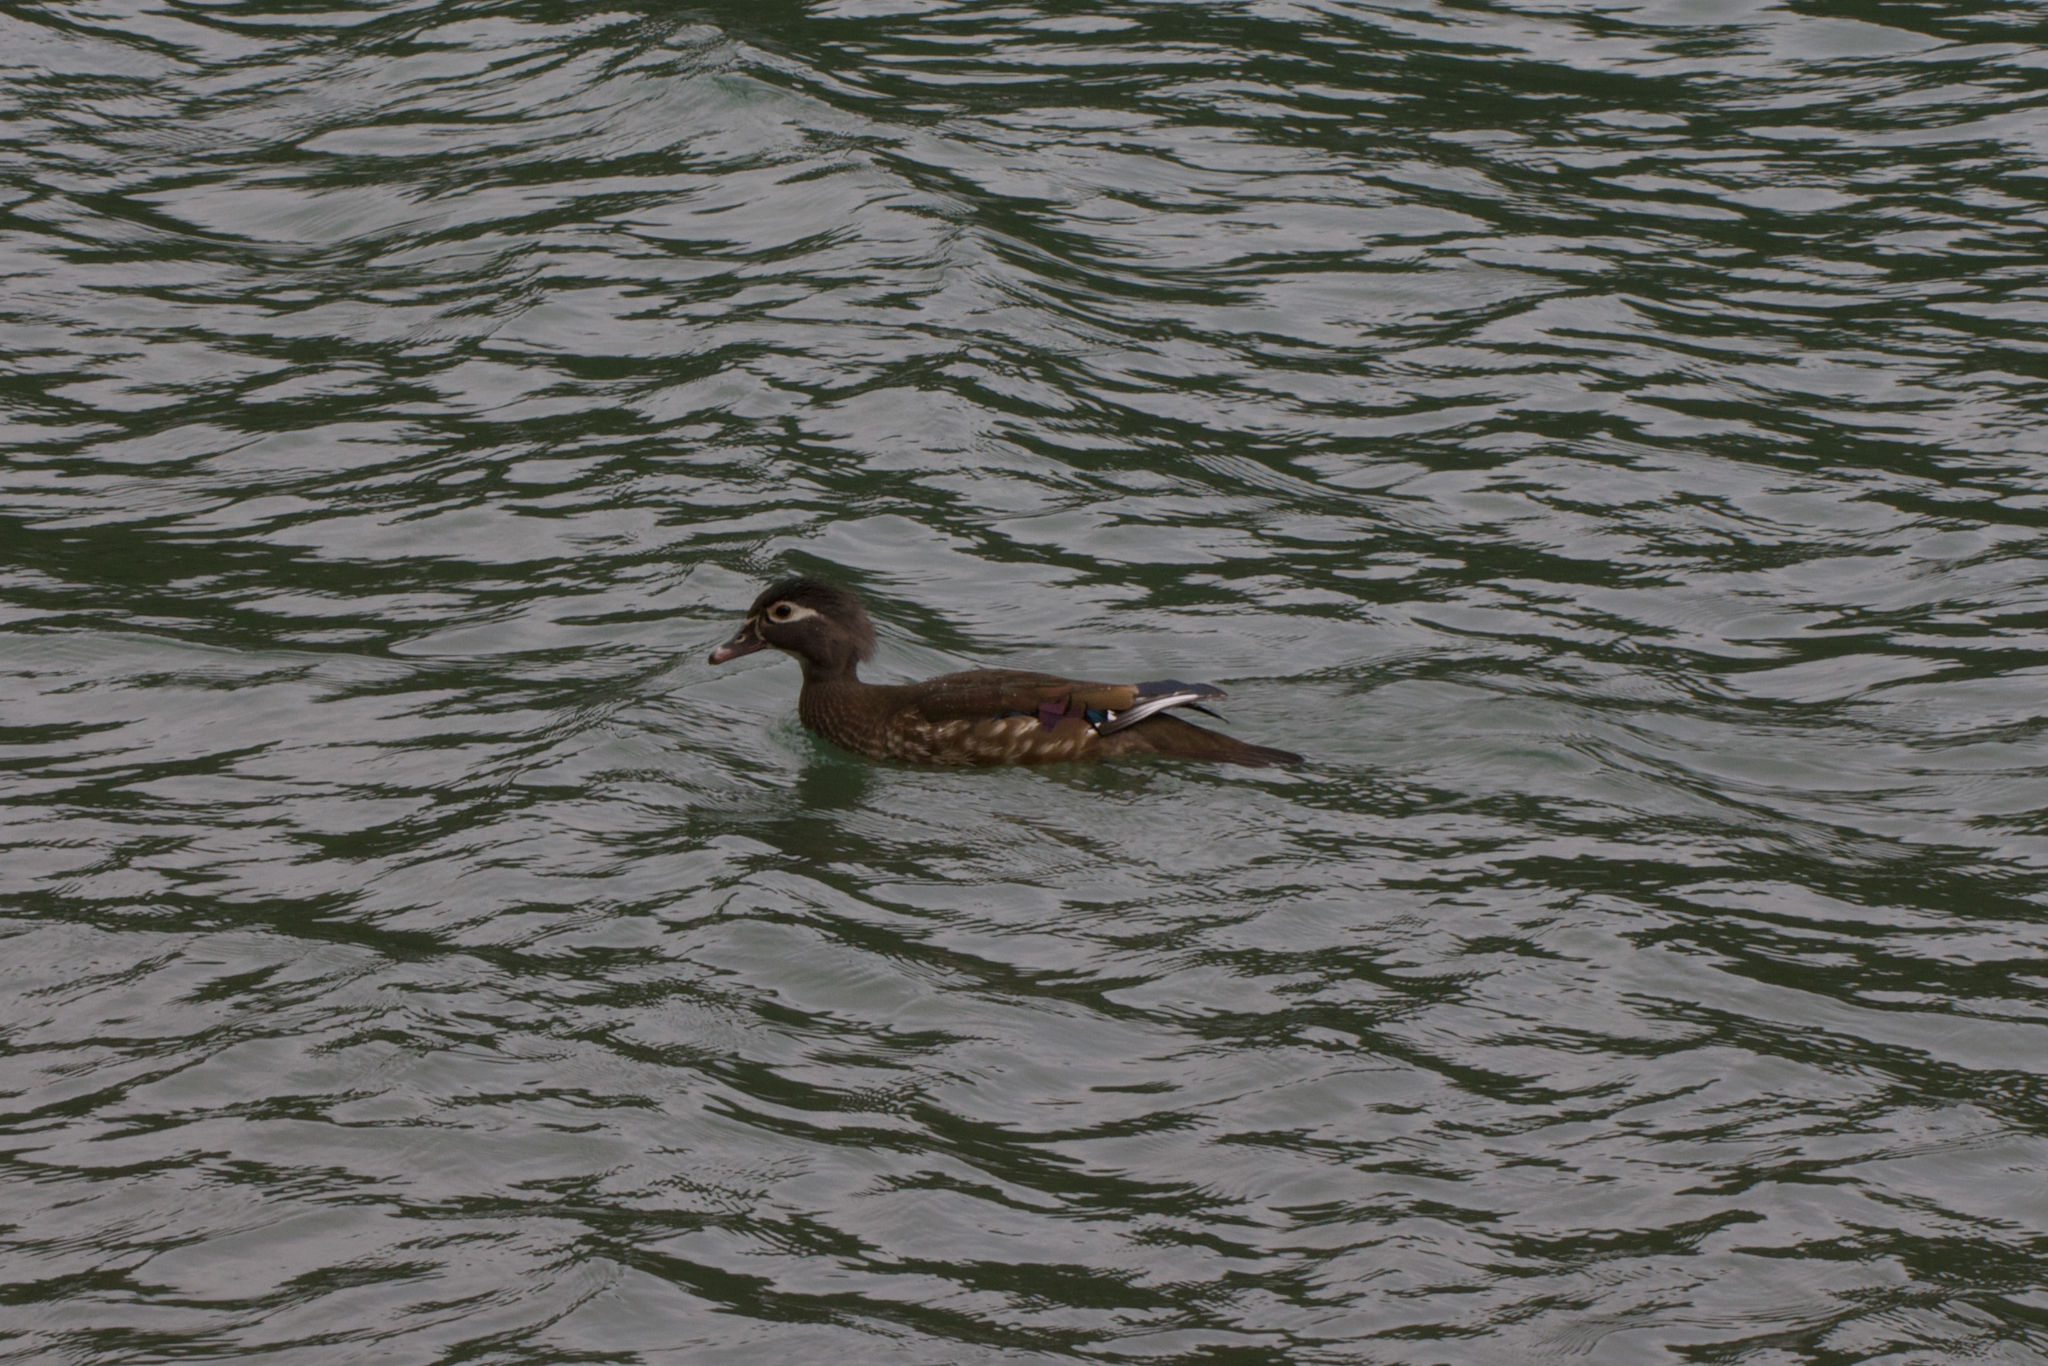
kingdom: Animalia
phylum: Chordata
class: Aves
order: Anseriformes
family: Anatidae
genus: Aix
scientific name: Aix sponsa
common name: Wood duck
